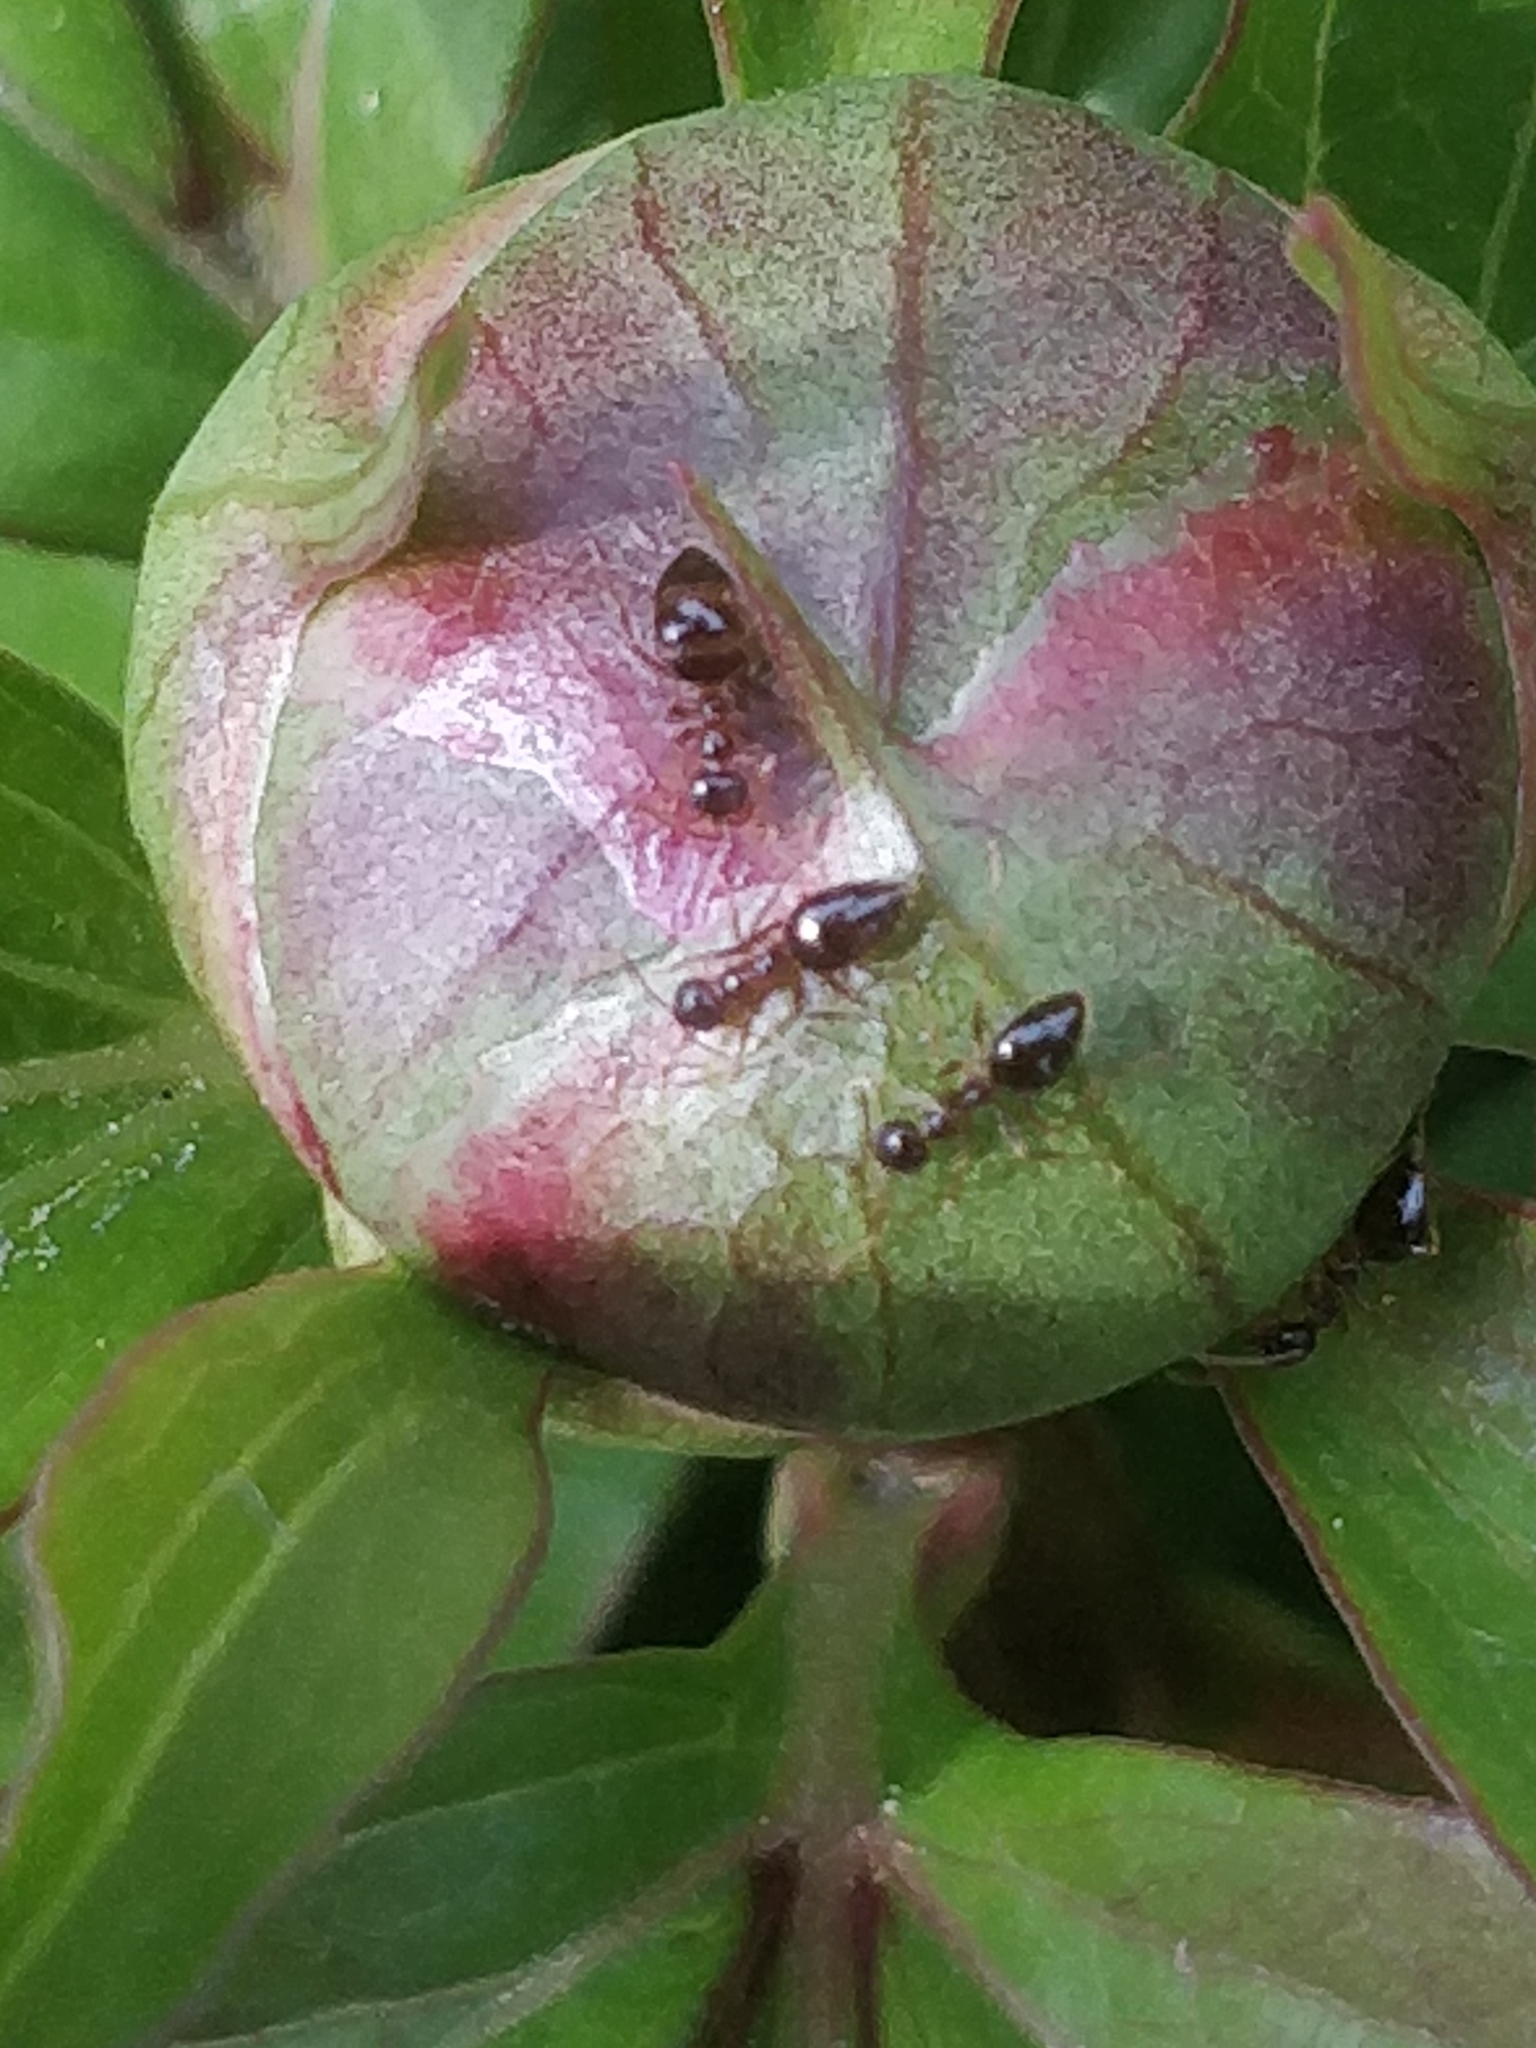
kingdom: Animalia
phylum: Arthropoda
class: Insecta
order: Hymenoptera
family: Formicidae
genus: Prenolepis
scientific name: Prenolepis imparis
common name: Small honey ant
